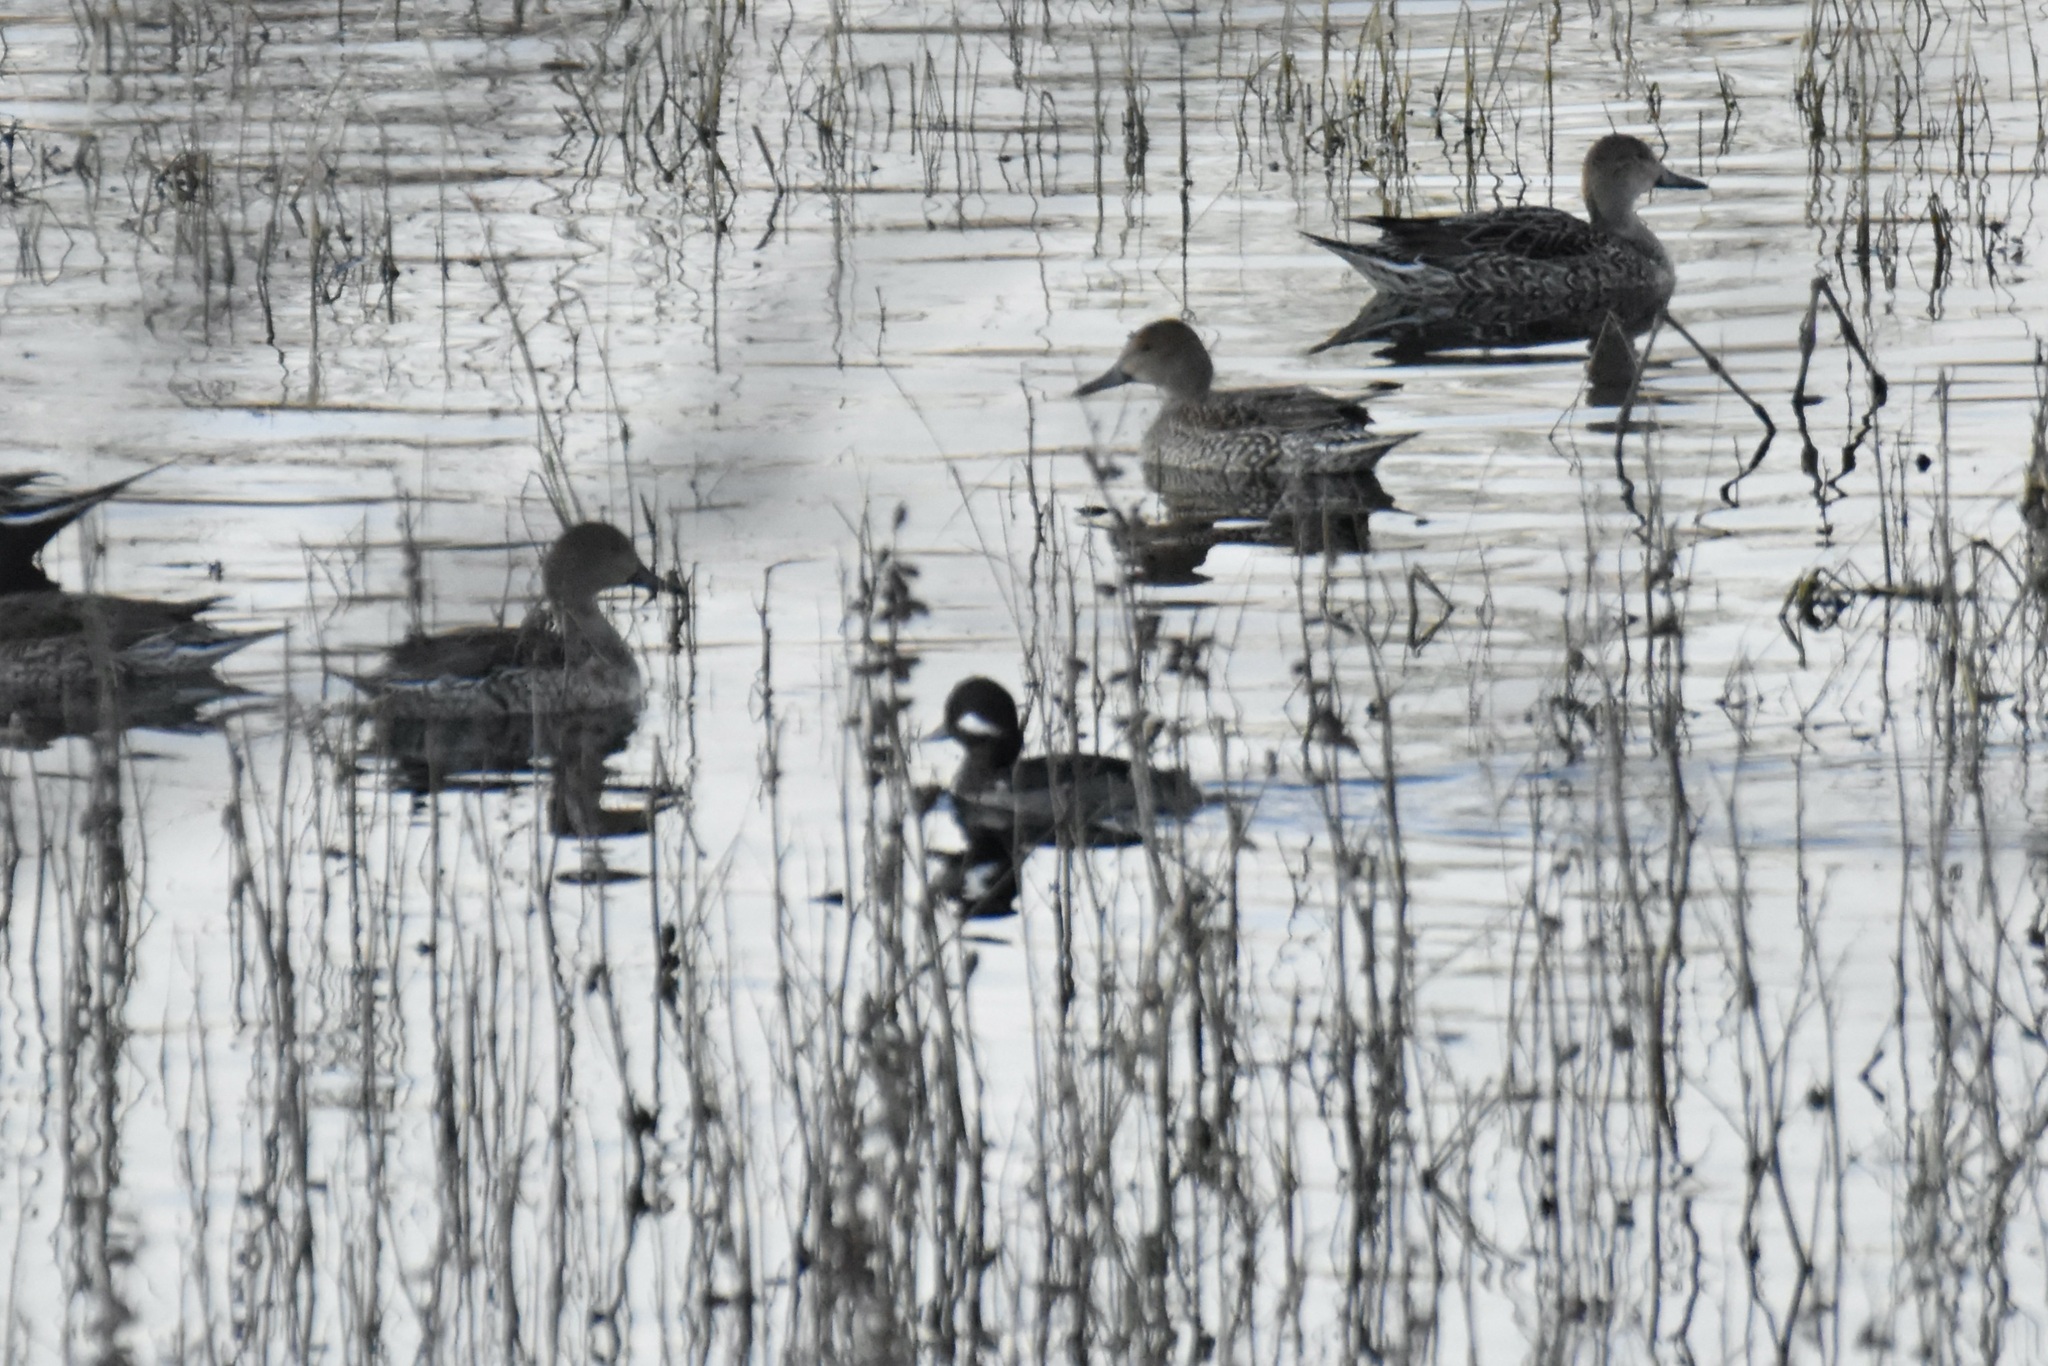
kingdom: Animalia
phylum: Chordata
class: Aves
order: Anseriformes
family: Anatidae
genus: Bucephala
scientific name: Bucephala albeola
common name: Bufflehead
